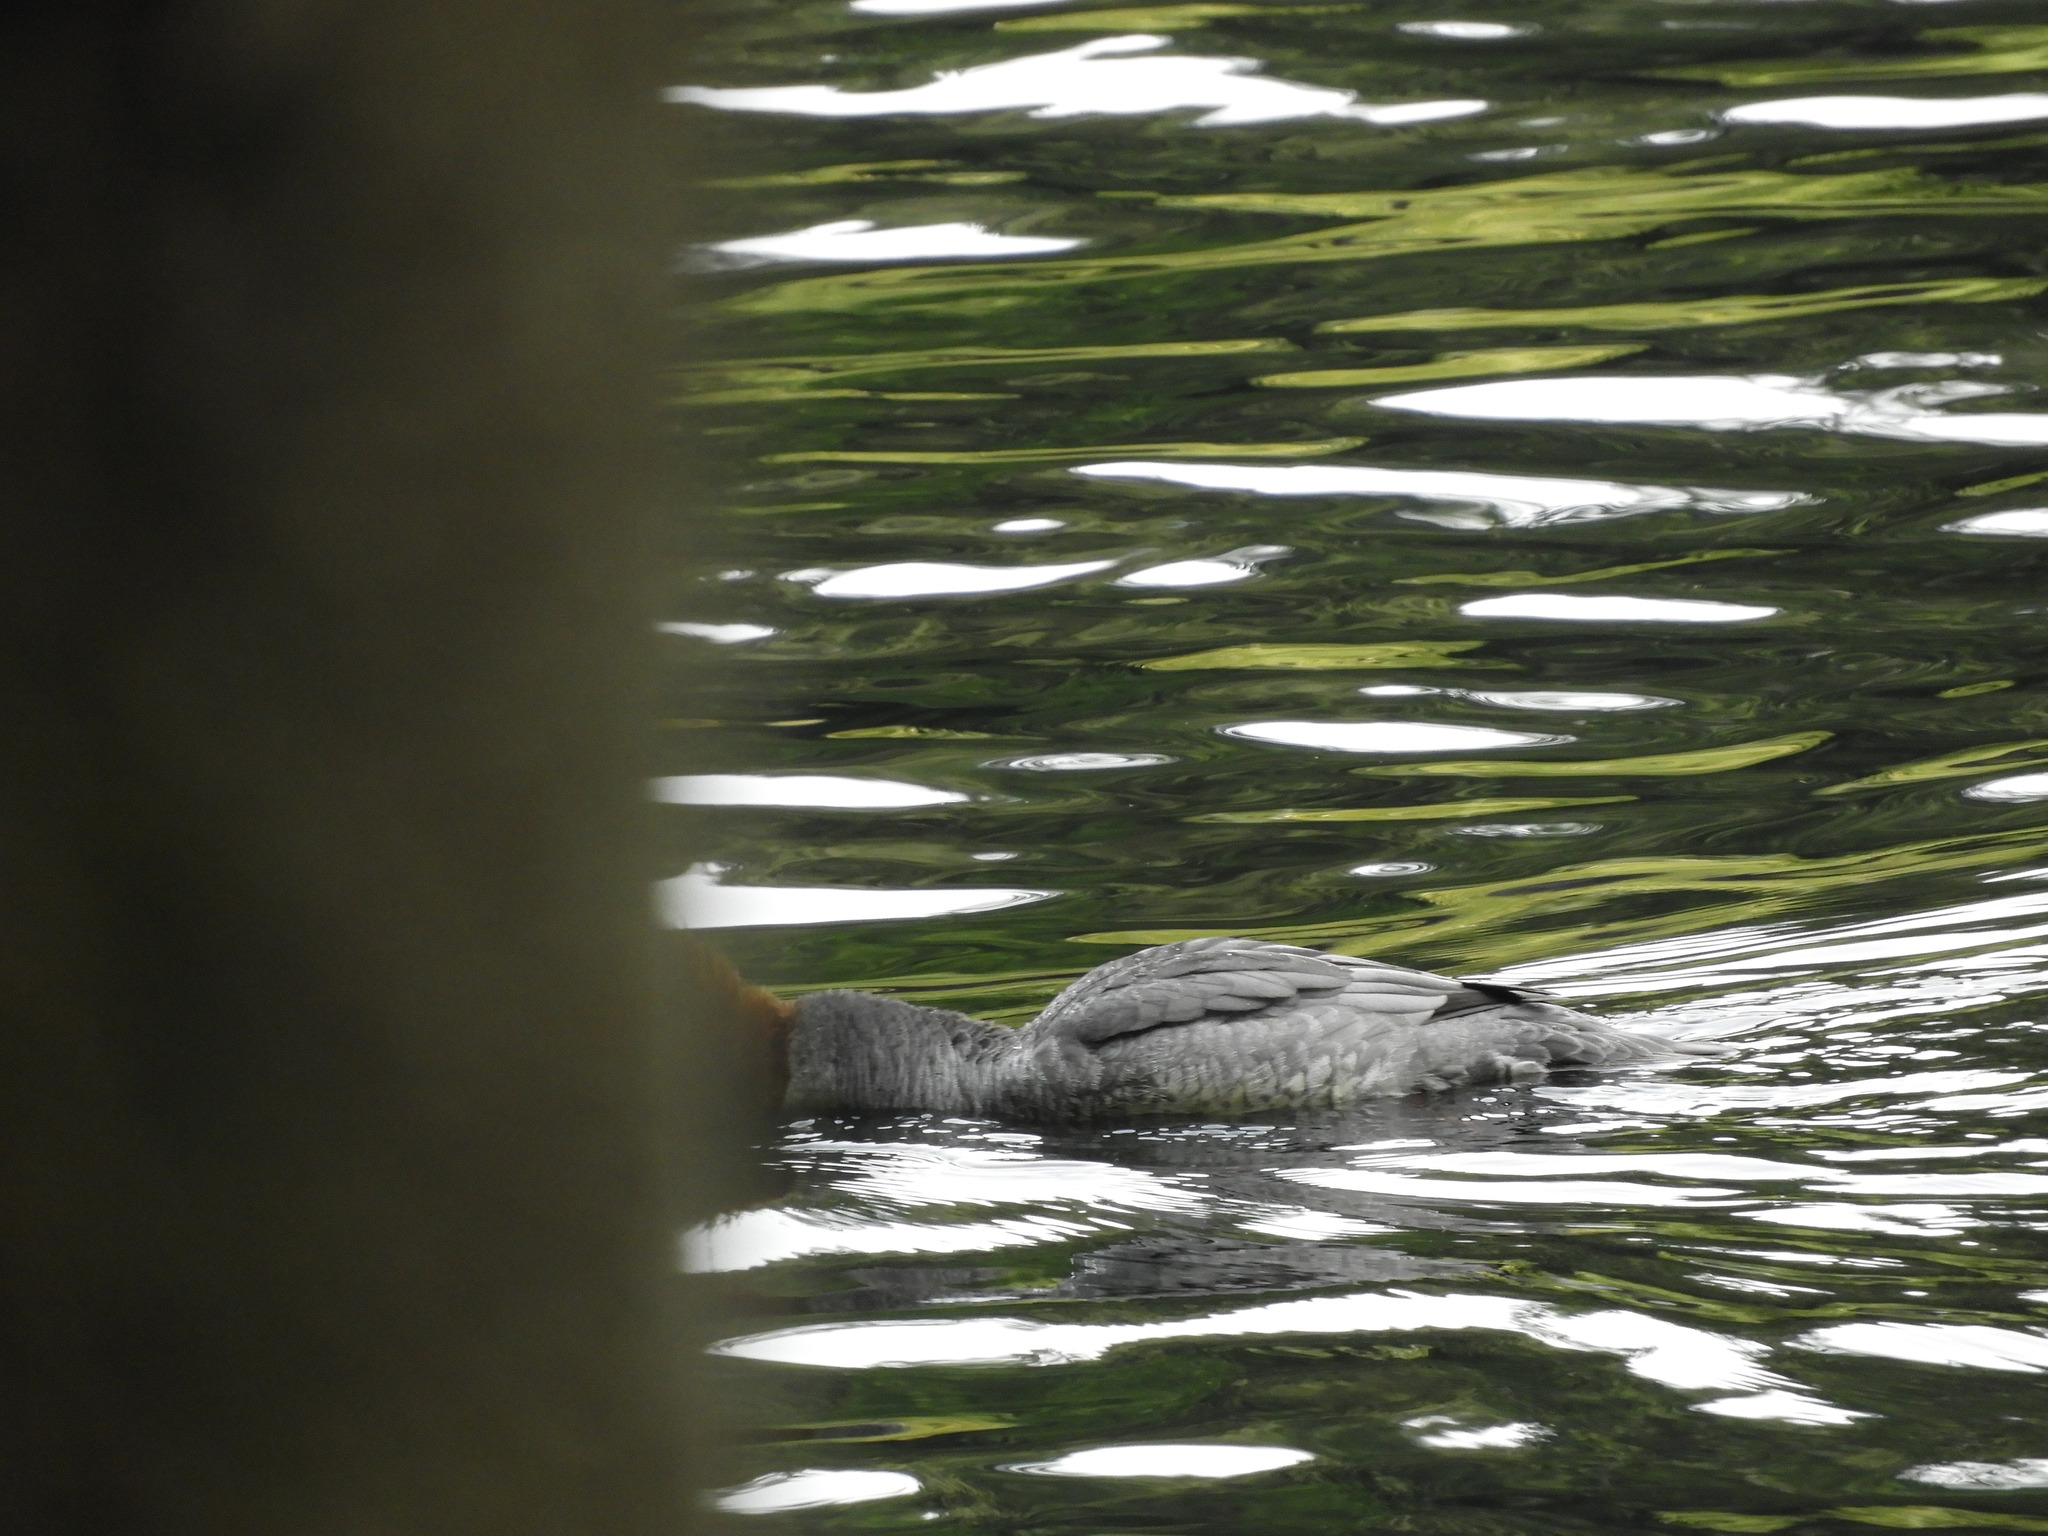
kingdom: Animalia
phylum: Chordata
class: Aves
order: Anseriformes
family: Anatidae
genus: Mergus
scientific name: Mergus merganser
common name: Common merganser
